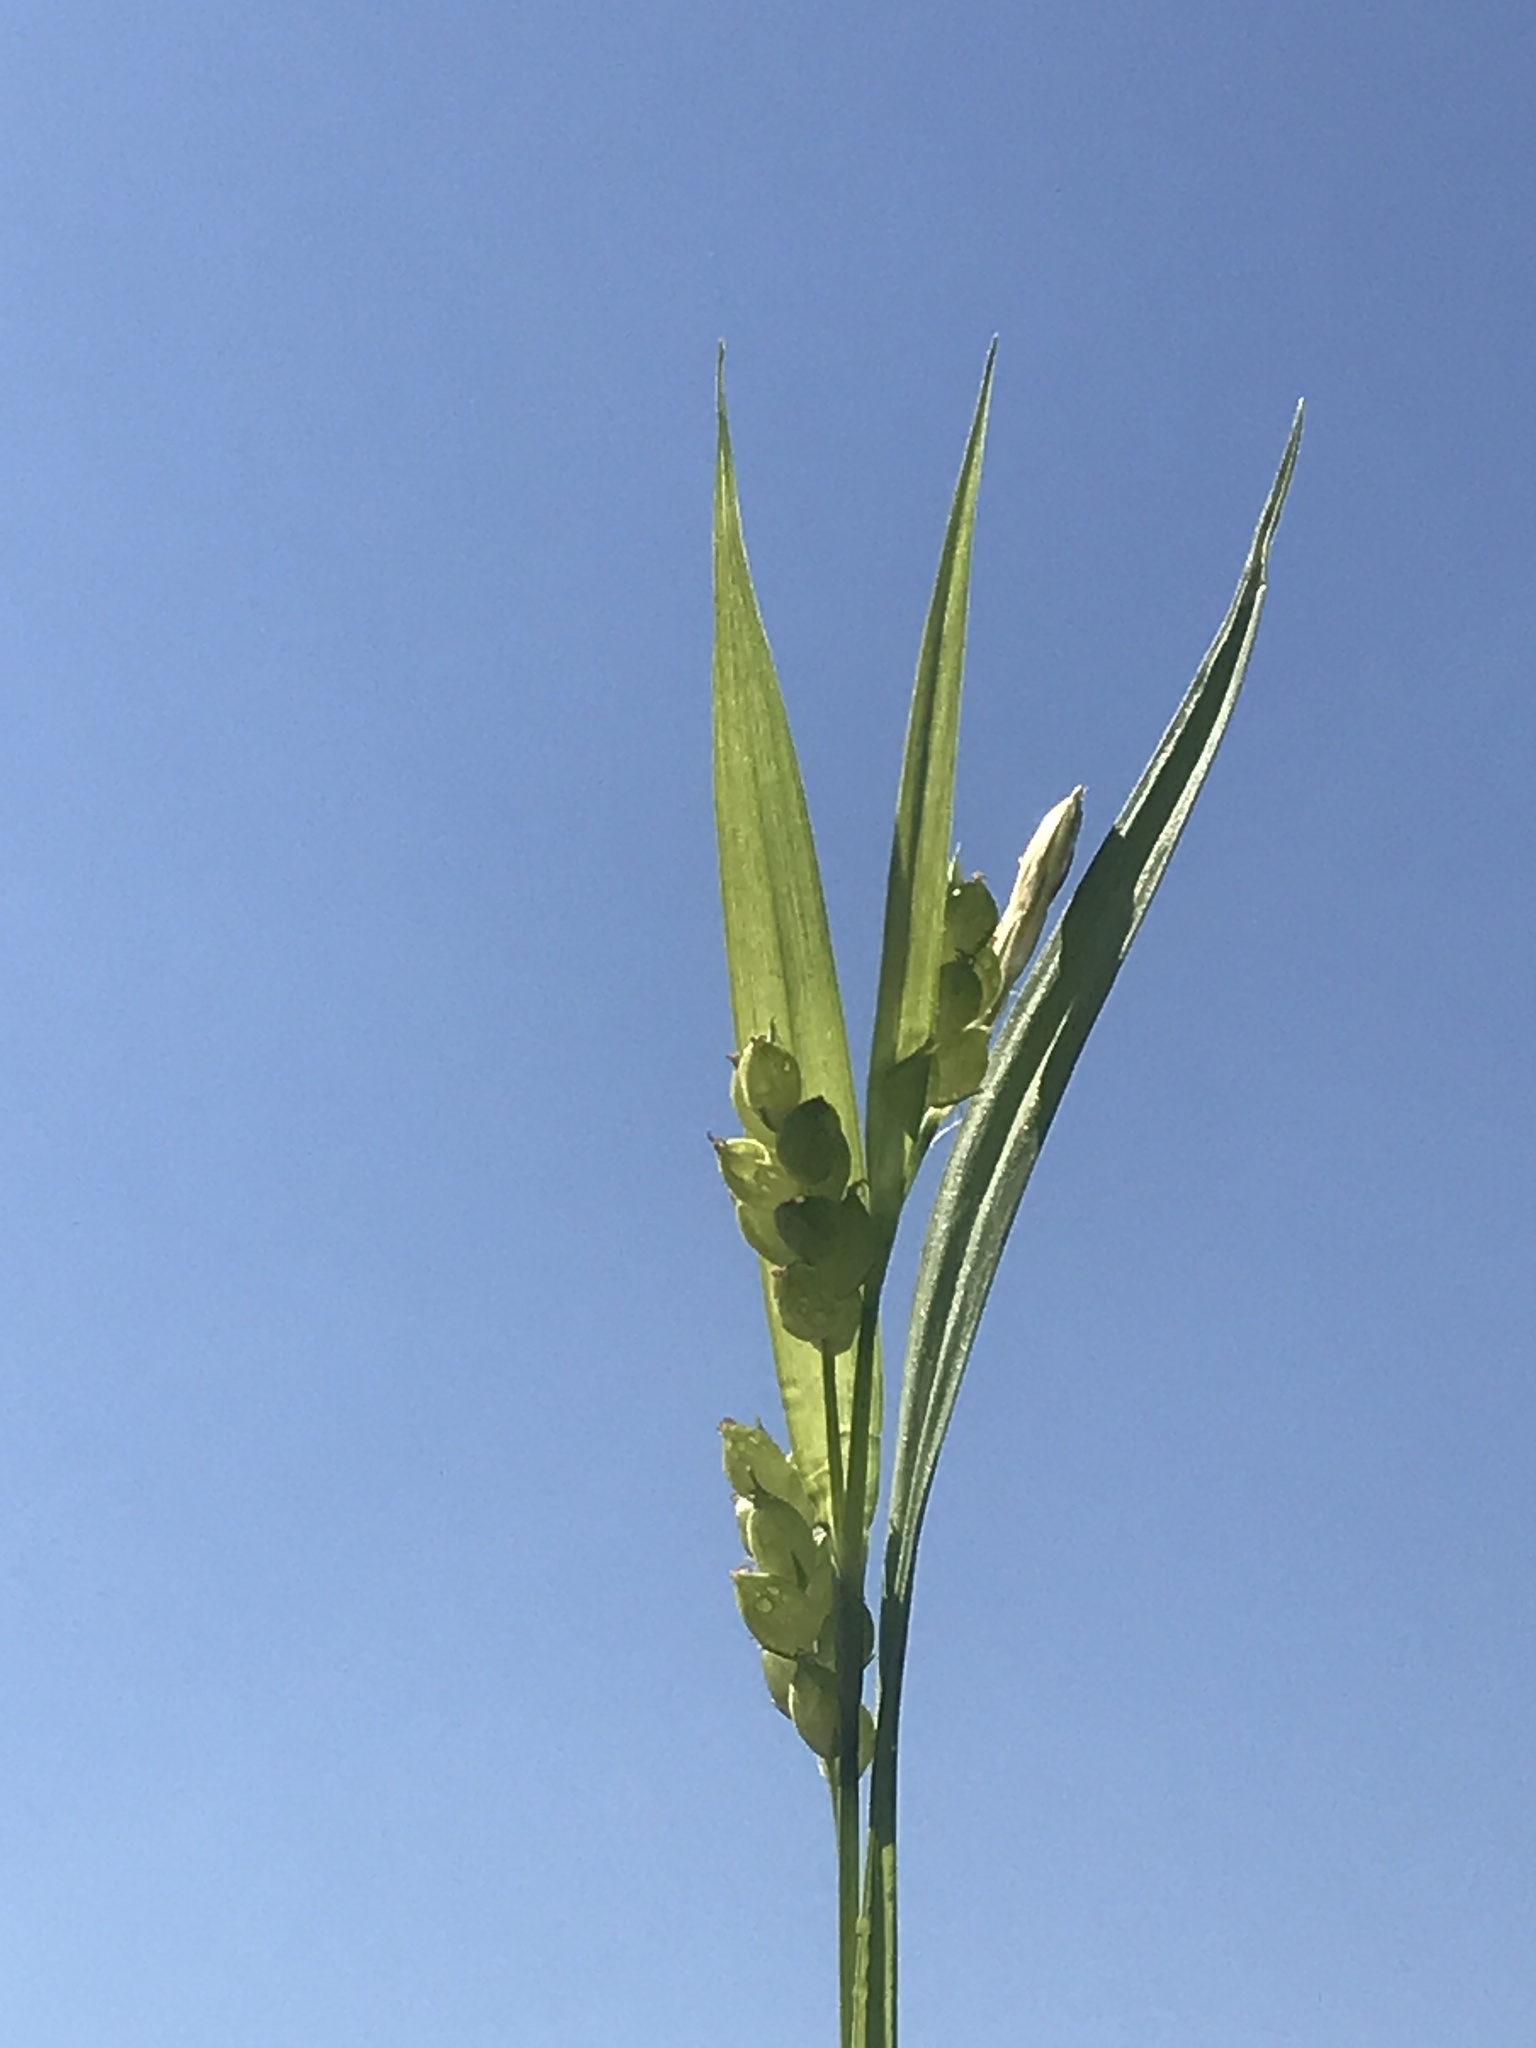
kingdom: Plantae
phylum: Tracheophyta
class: Liliopsida
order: Poales
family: Cyperaceae
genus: Carex
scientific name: Carex blanda
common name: Bland sedge
